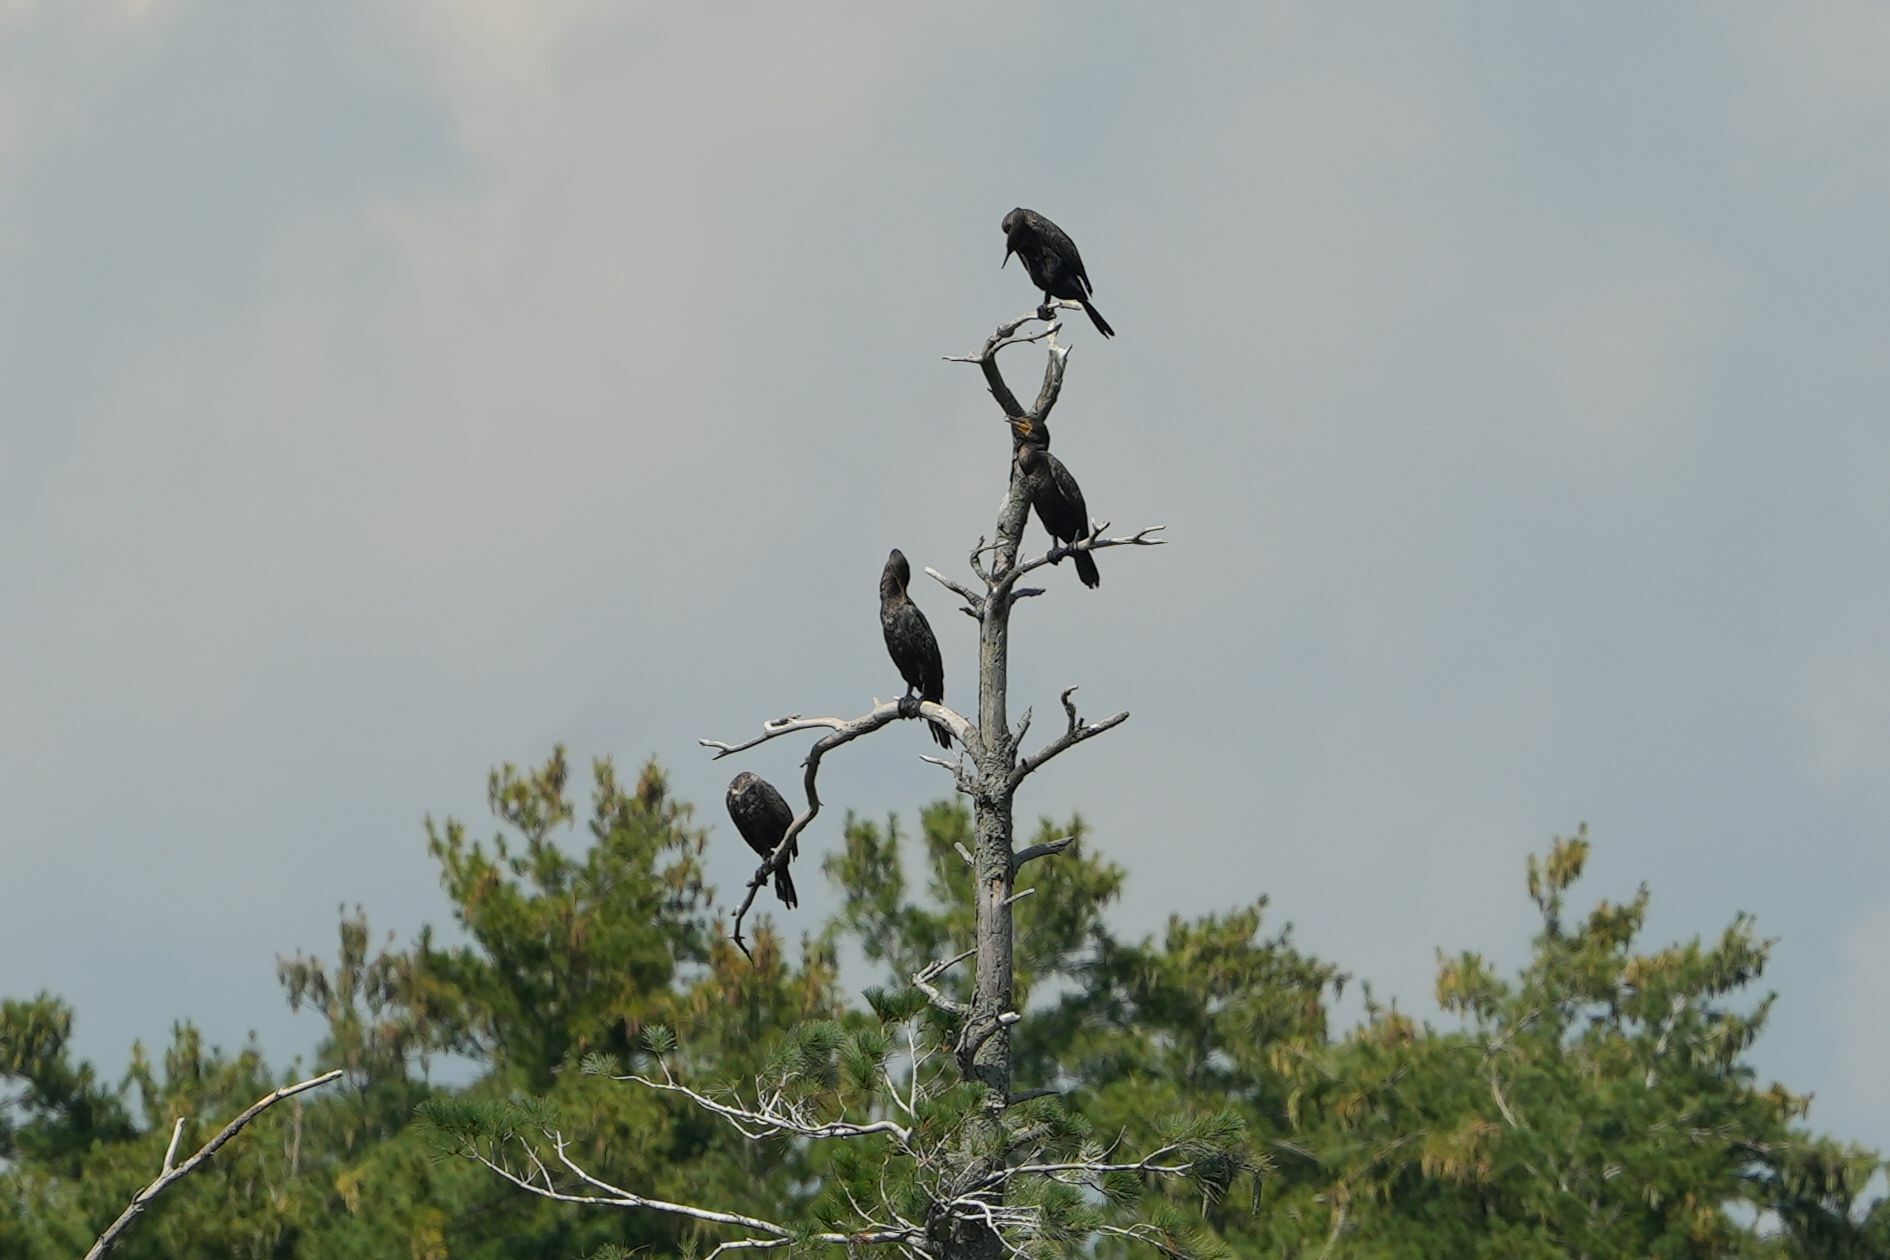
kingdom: Animalia
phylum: Chordata
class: Aves
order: Suliformes
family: Phalacrocoracidae
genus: Phalacrocorax
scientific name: Phalacrocorax auritus
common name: Double-crested cormorant
